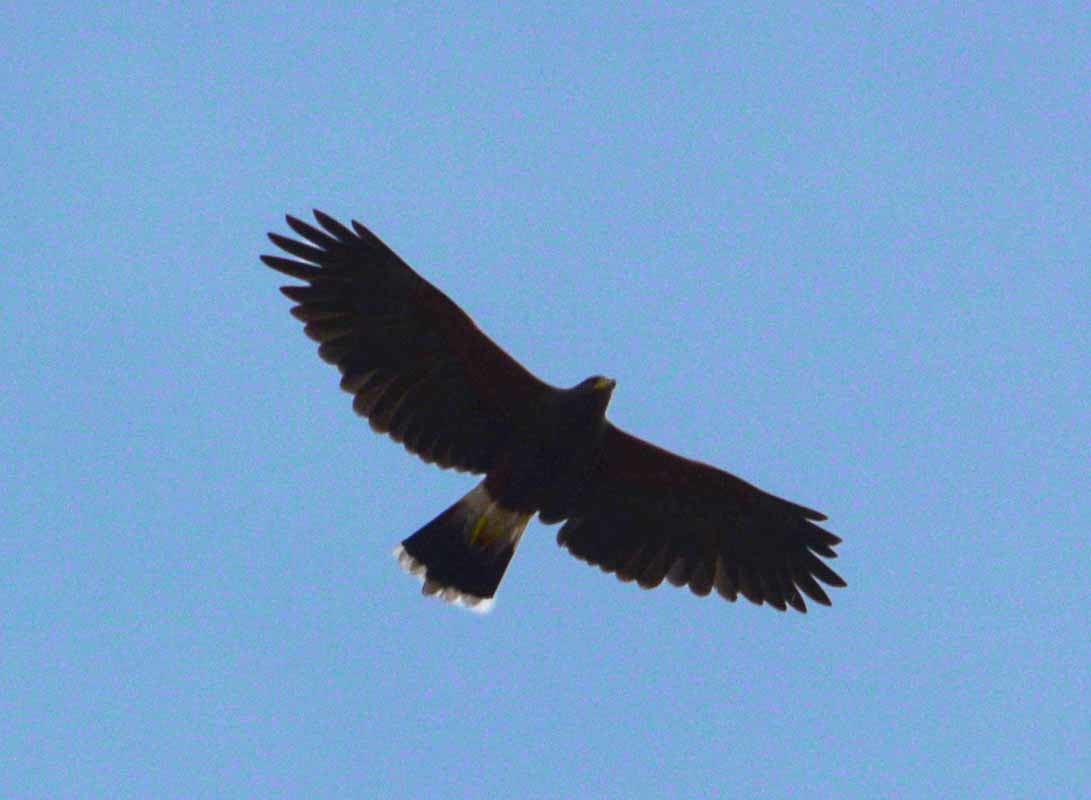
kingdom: Animalia
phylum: Chordata
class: Aves
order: Accipitriformes
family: Accipitridae
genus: Parabuteo
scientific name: Parabuteo unicinctus
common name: Harris's hawk
